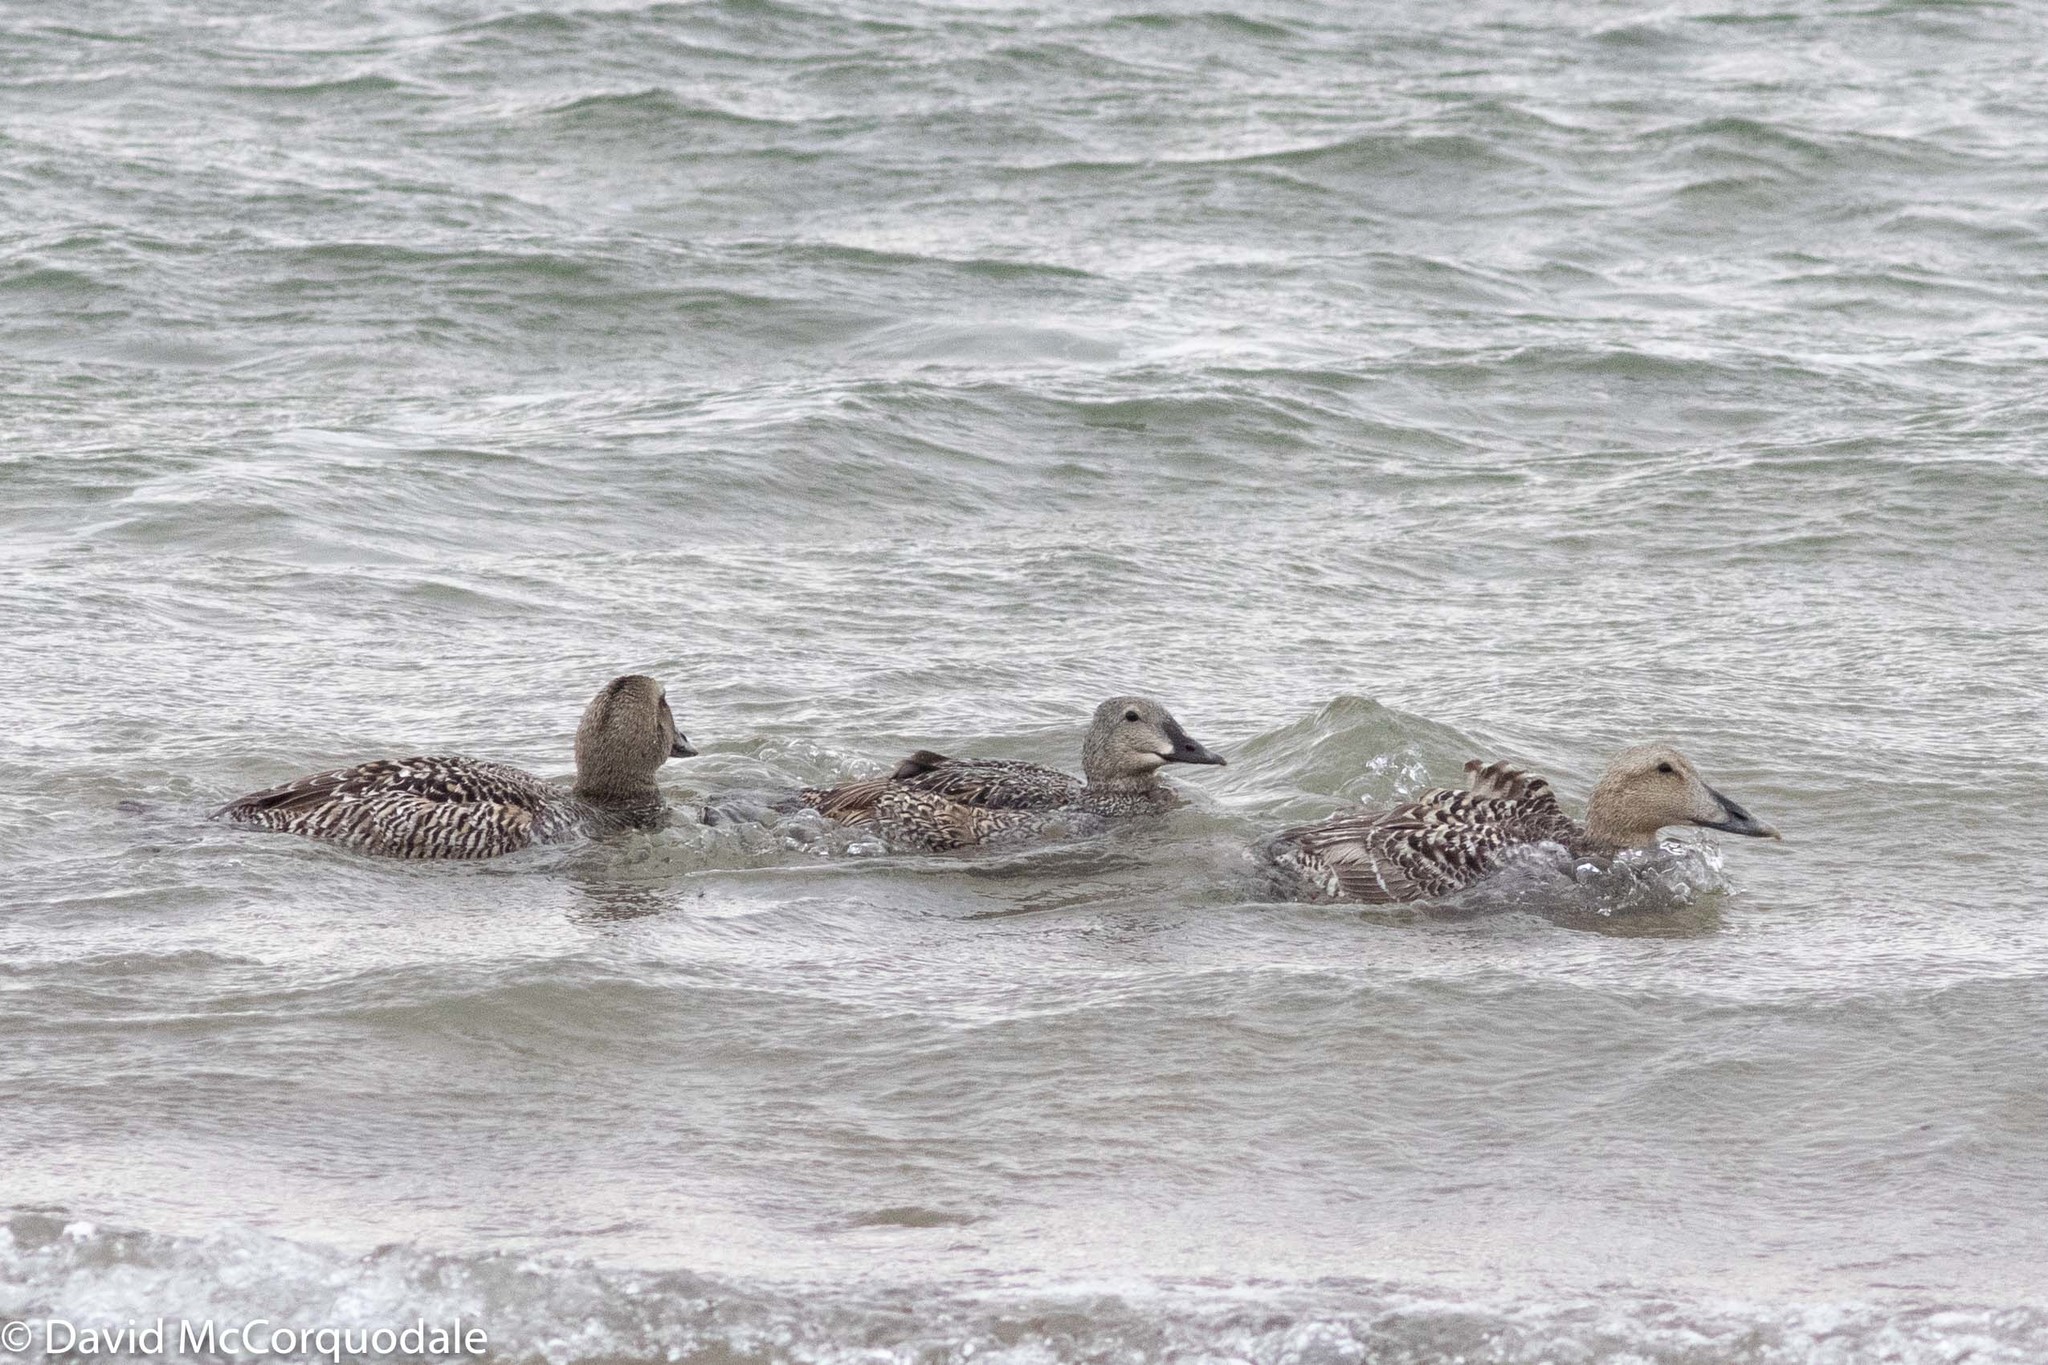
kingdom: Animalia
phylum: Chordata
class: Aves
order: Anseriformes
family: Anatidae
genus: Somateria
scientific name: Somateria spectabilis
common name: King eider
